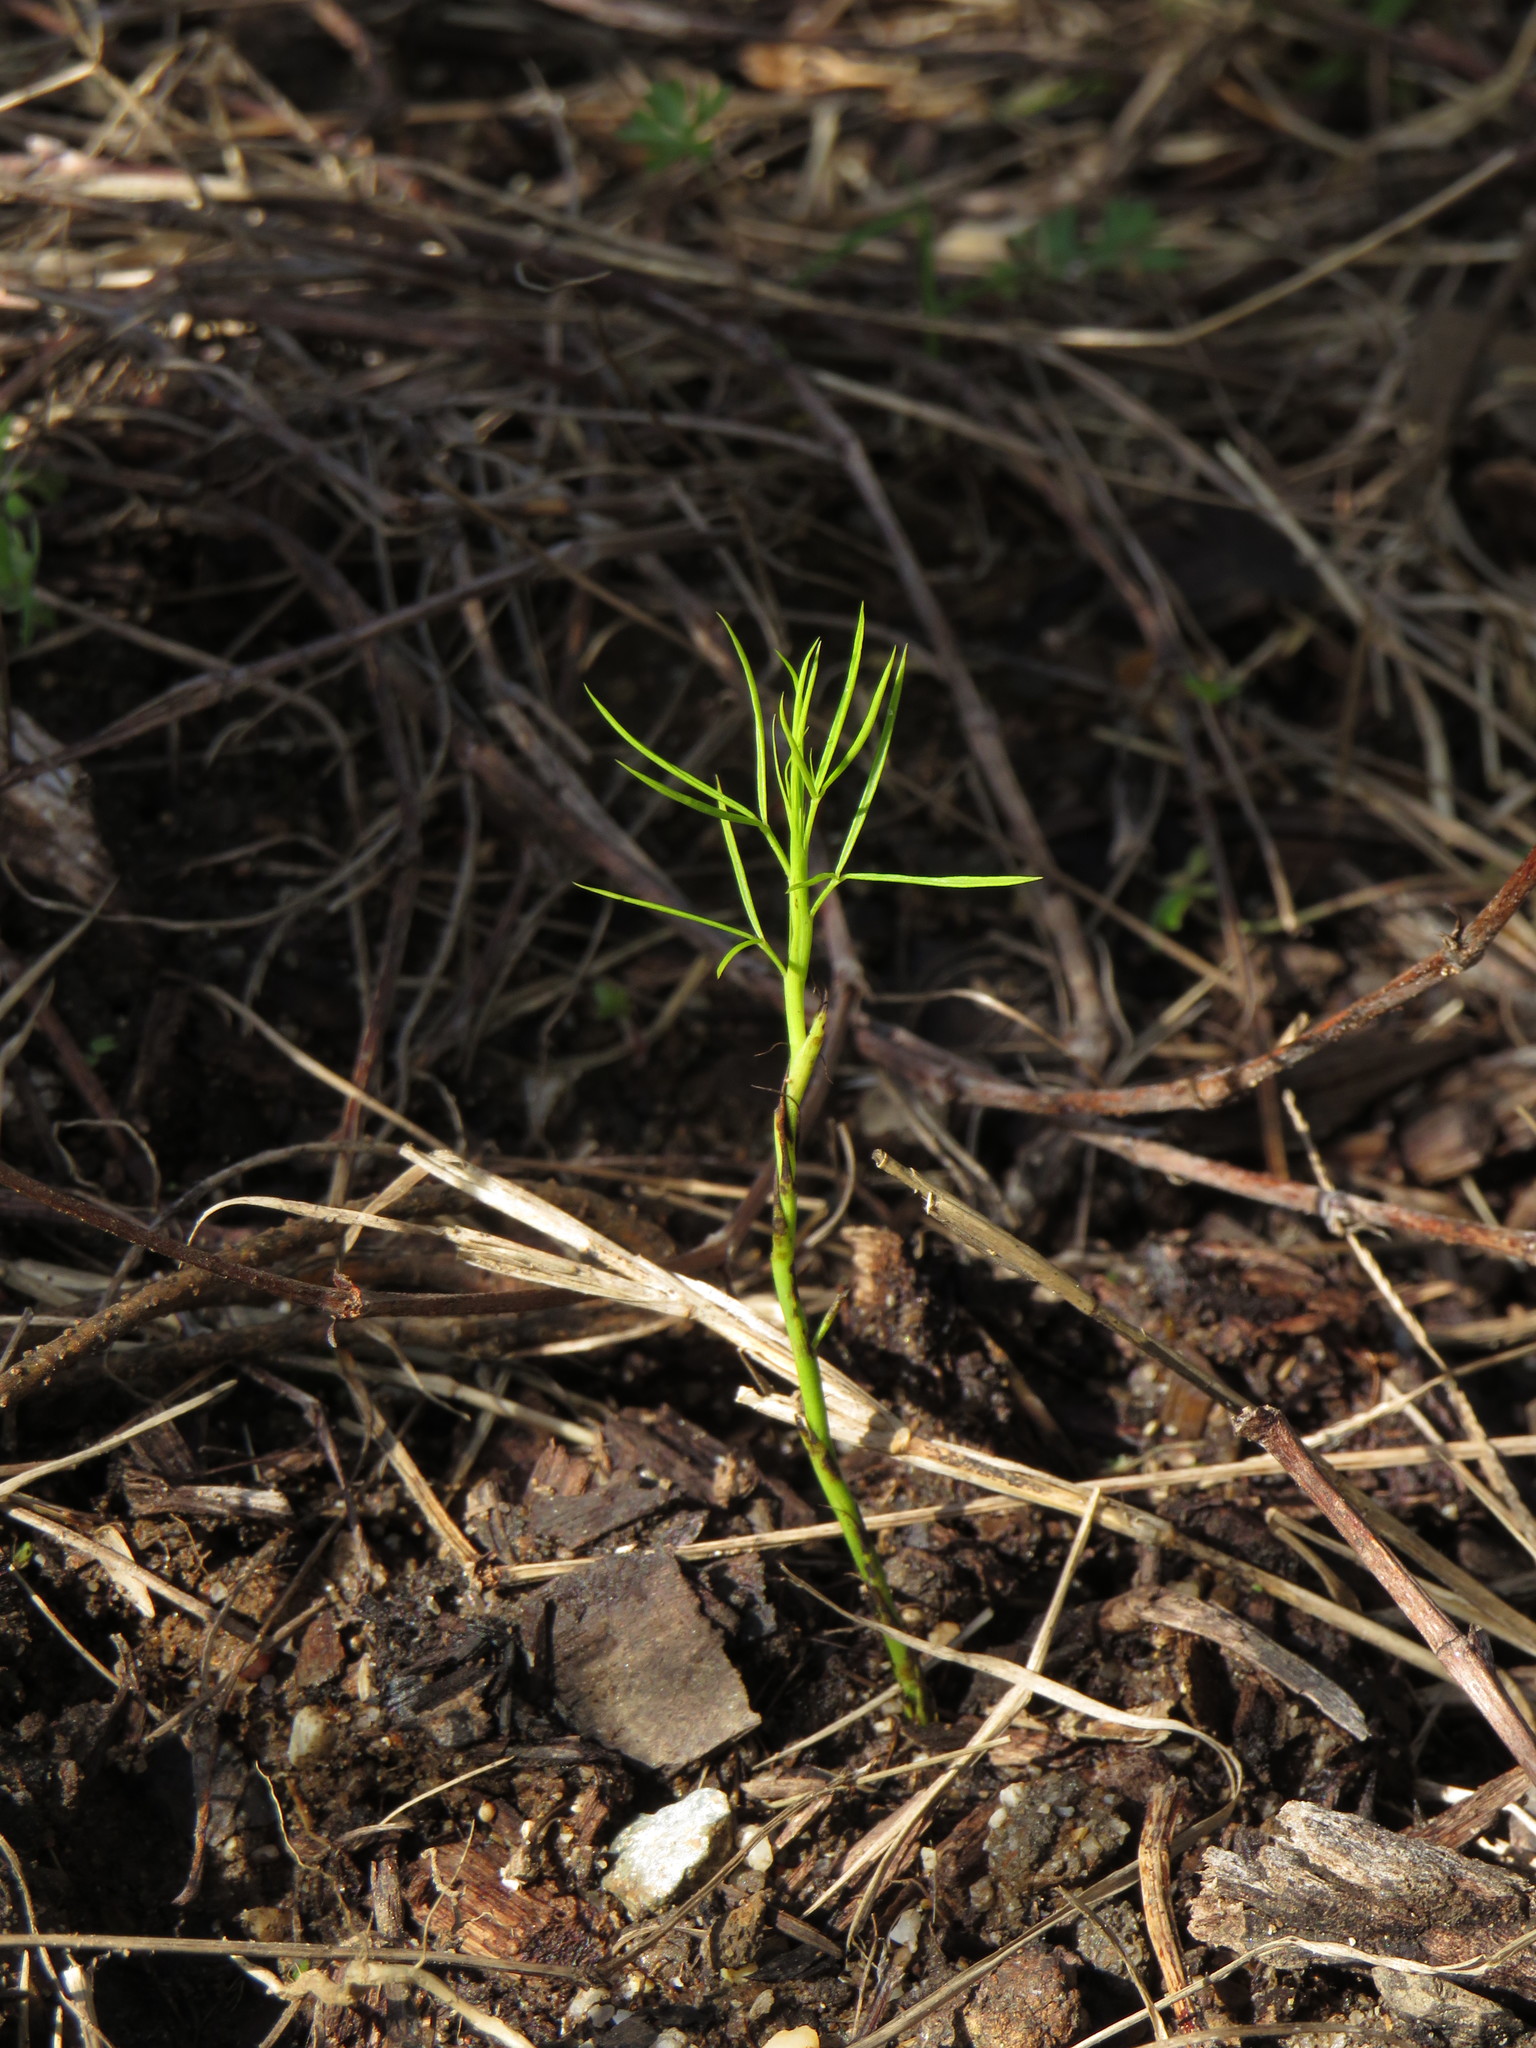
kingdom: Plantae
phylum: Tracheophyta
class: Magnoliopsida
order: Fabales
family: Fabaceae
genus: Psoralea
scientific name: Psoralea fascicularis
